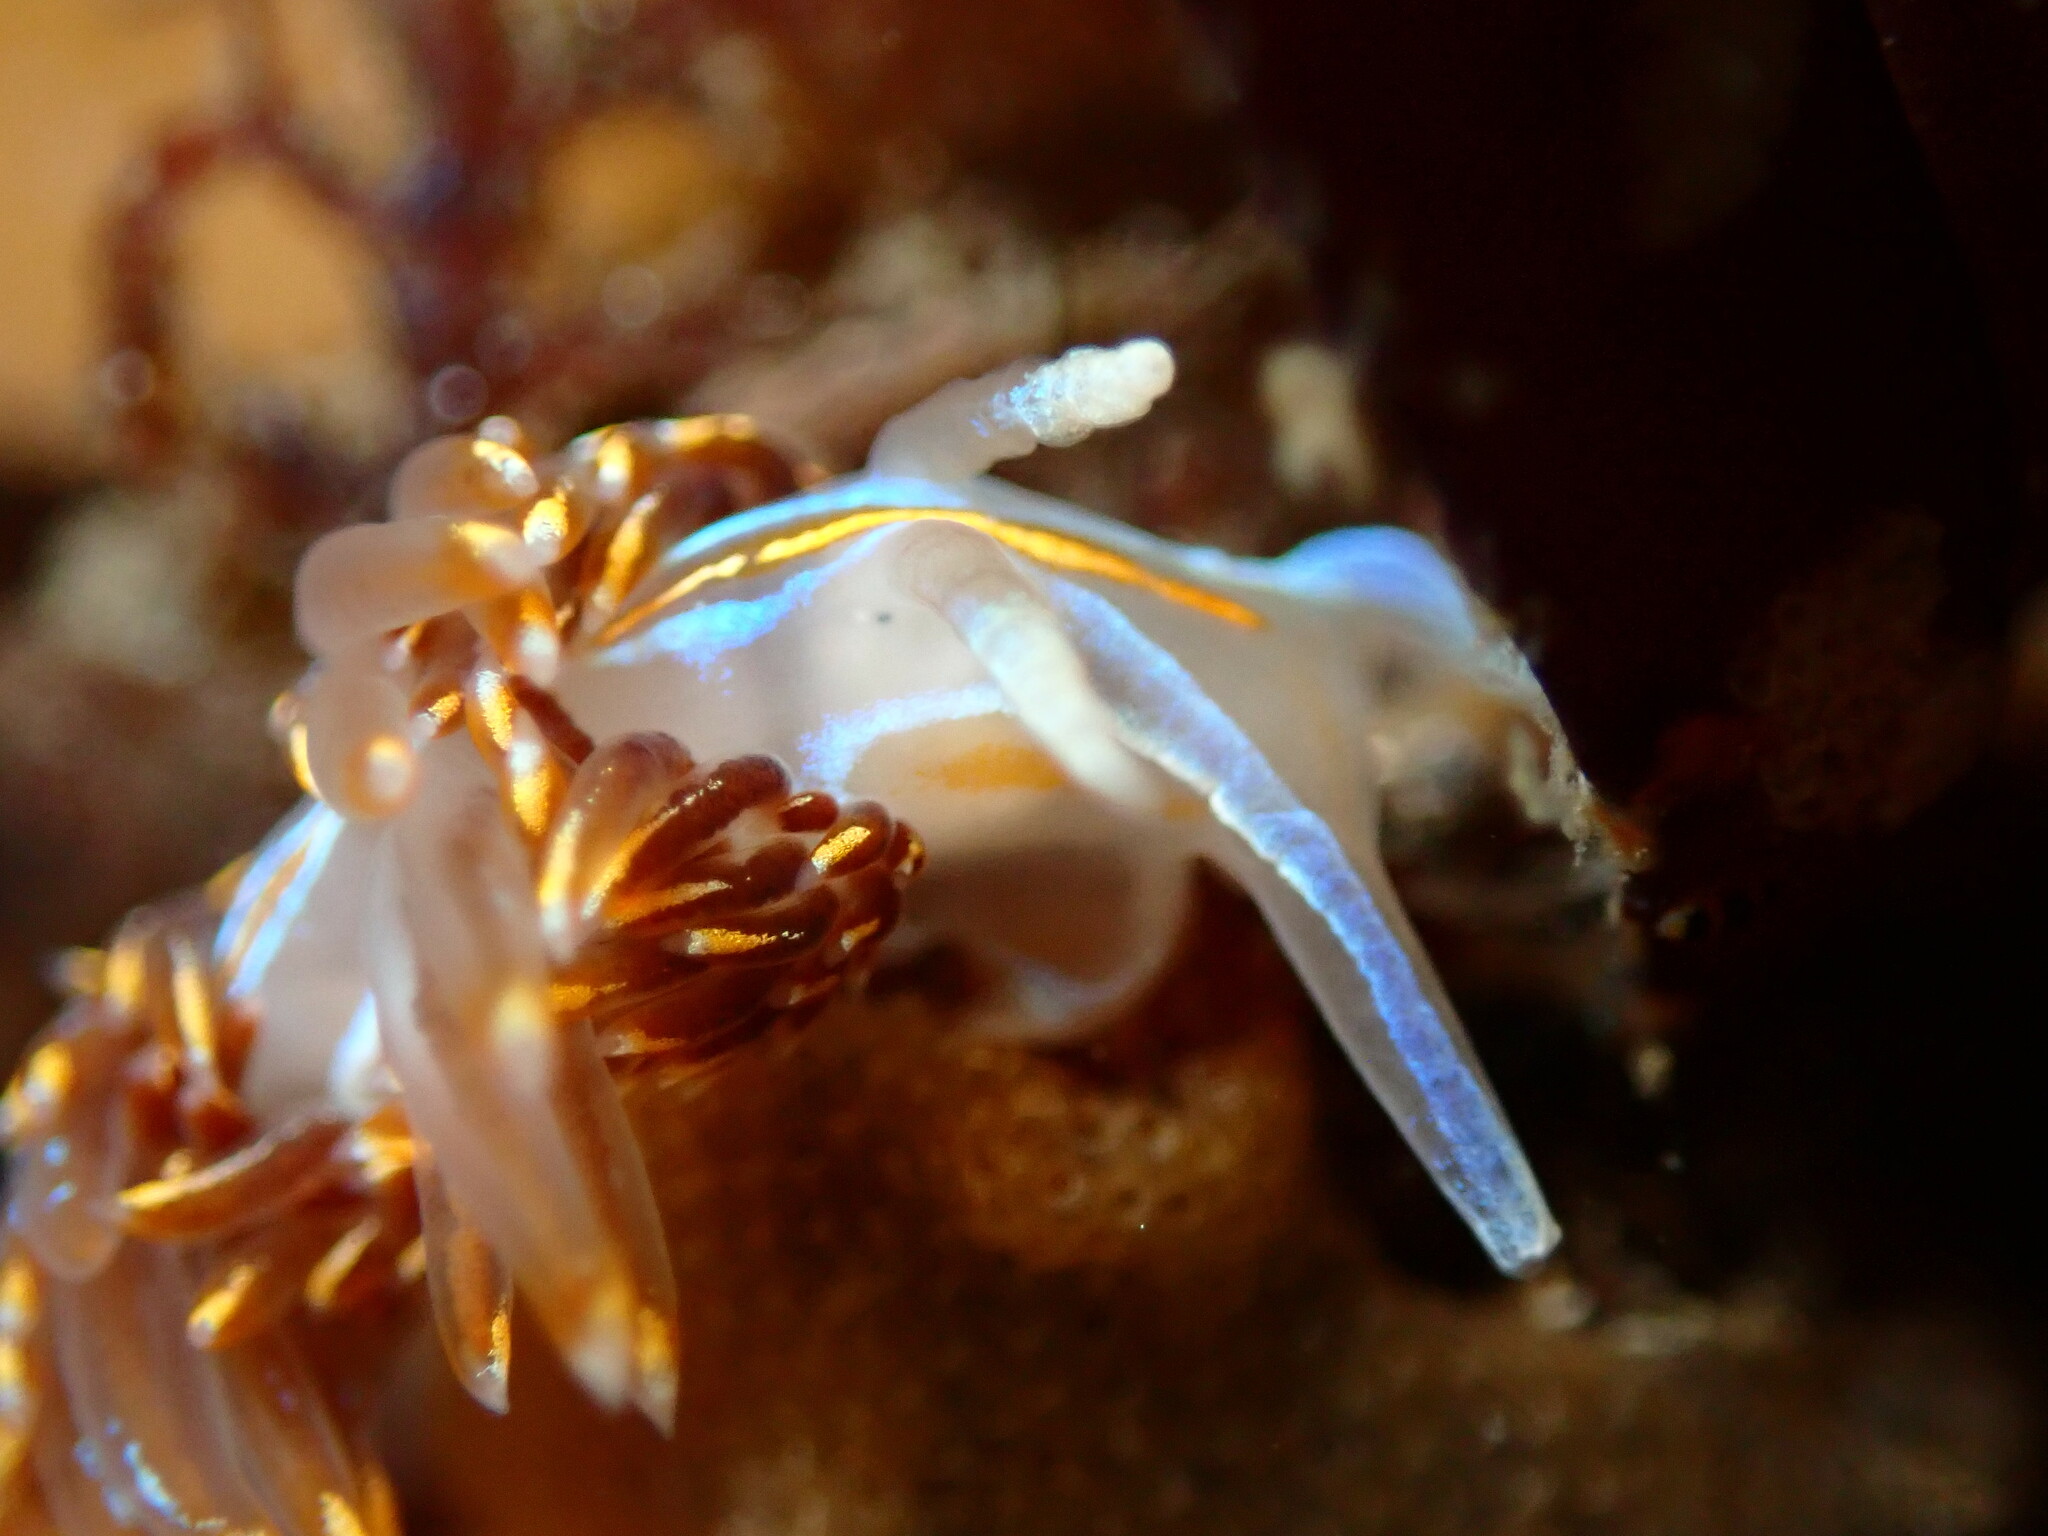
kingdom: Animalia
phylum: Mollusca
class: Gastropoda
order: Nudibranchia
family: Myrrhinidae
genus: Hermissenda
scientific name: Hermissenda opalescens
